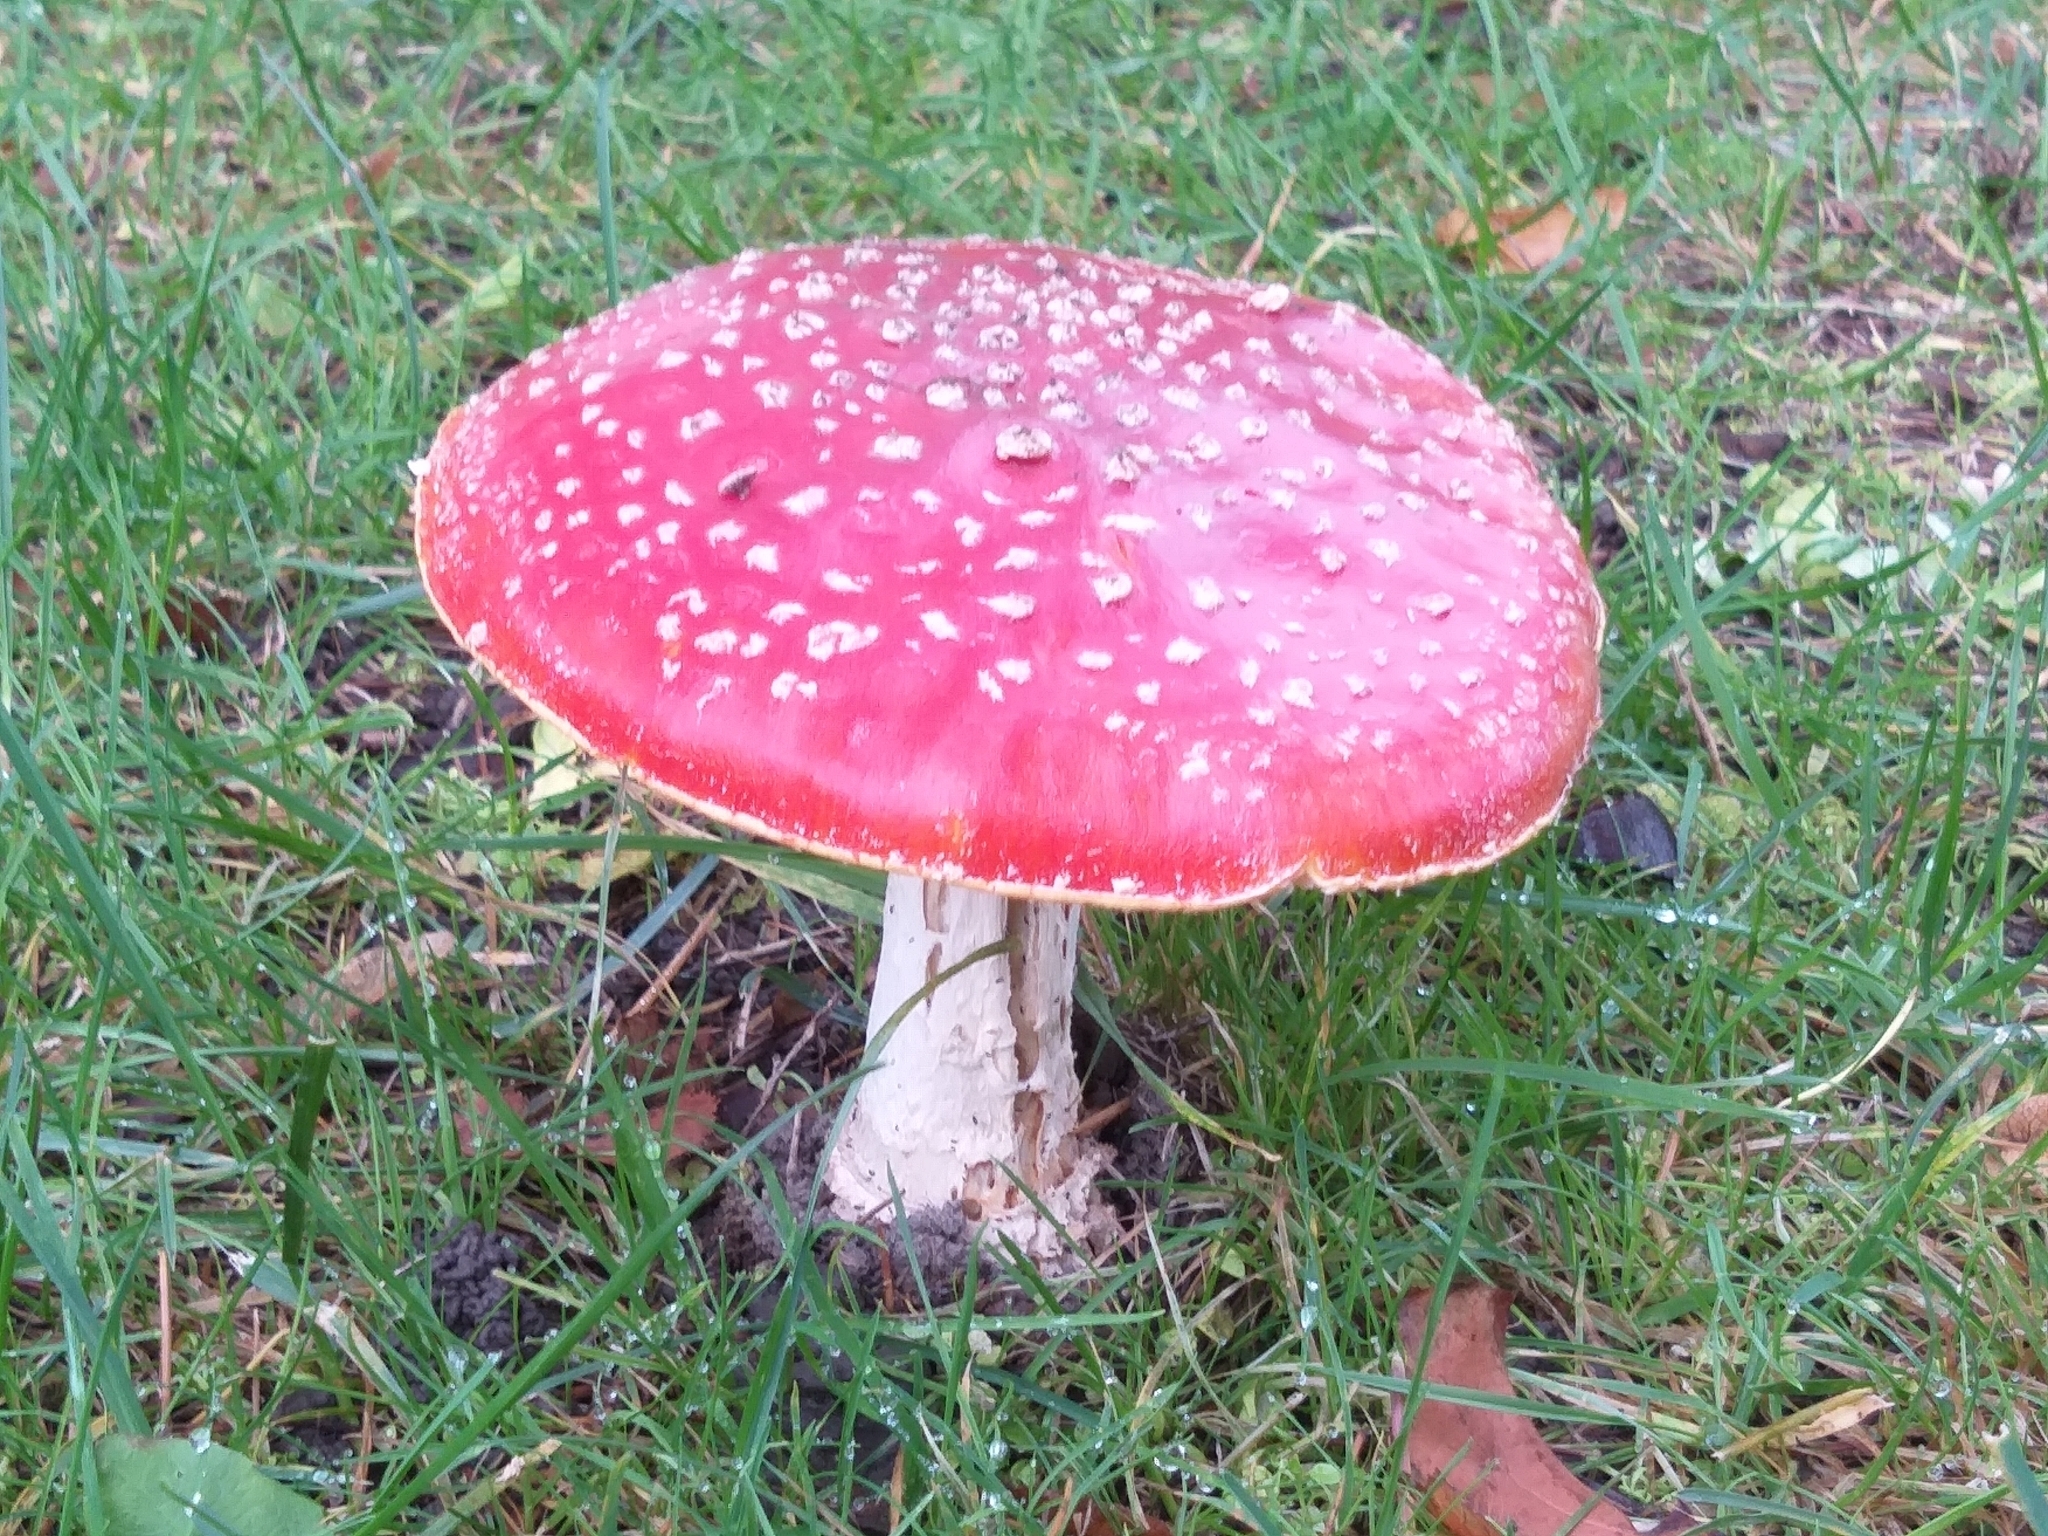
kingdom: Fungi
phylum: Basidiomycota
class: Agaricomycetes
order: Agaricales
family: Amanitaceae
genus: Amanita
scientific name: Amanita muscaria
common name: Fly agaric
